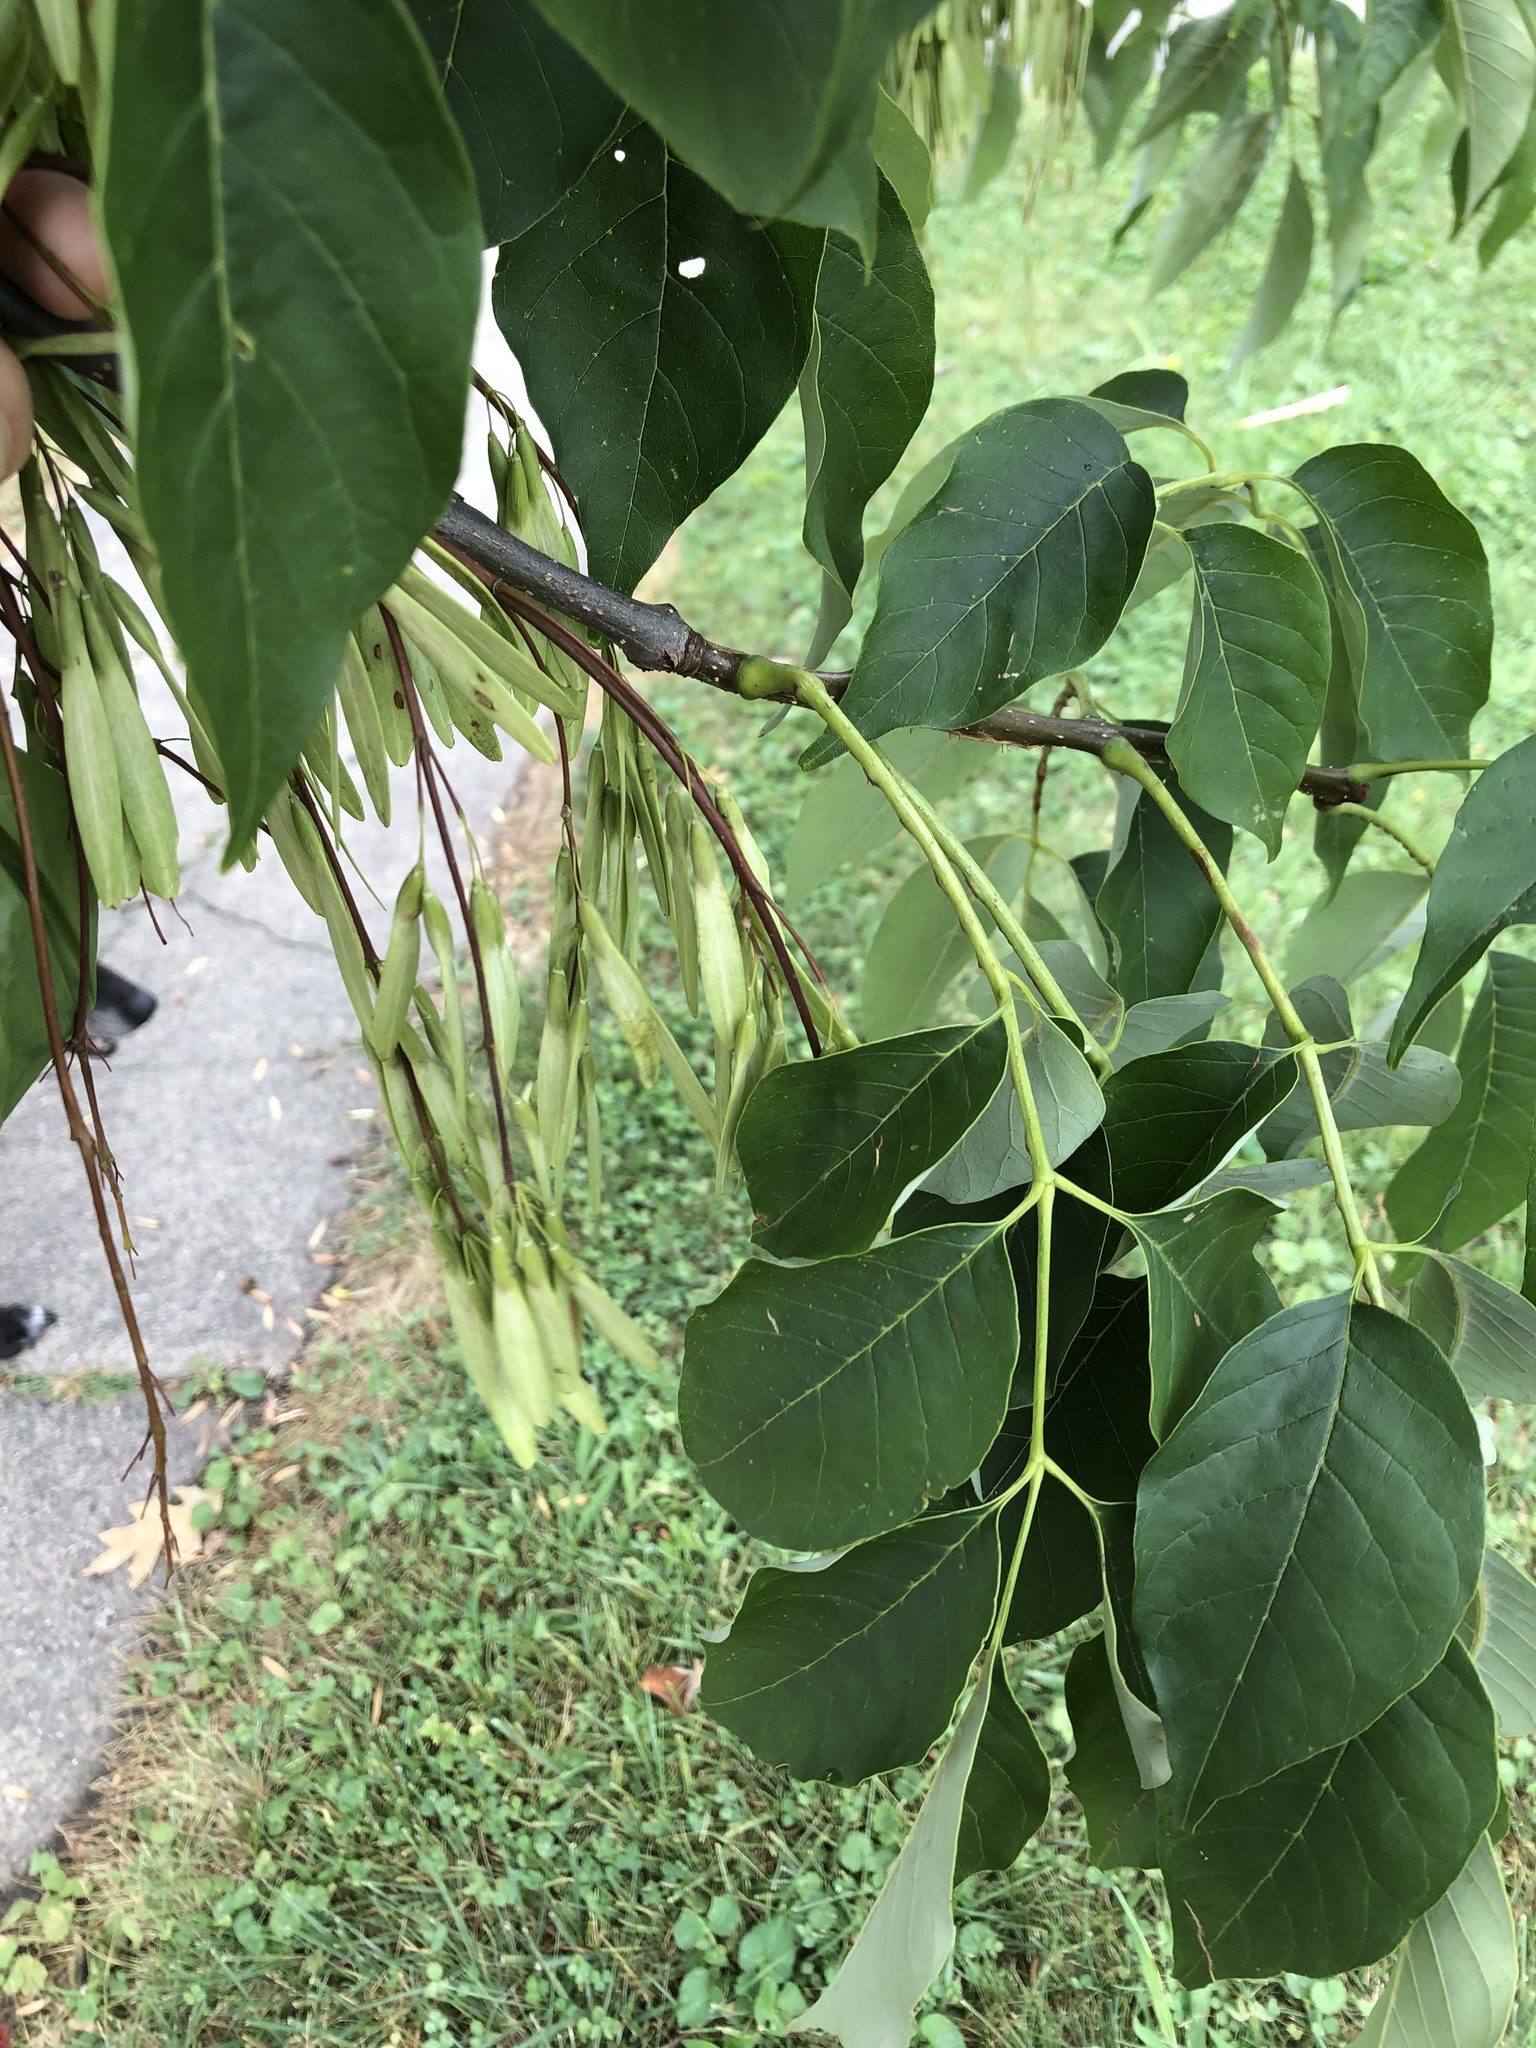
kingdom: Plantae
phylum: Tracheophyta
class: Magnoliopsida
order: Lamiales
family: Oleaceae
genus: Fraxinus
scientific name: Fraxinus americana
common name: White ash
